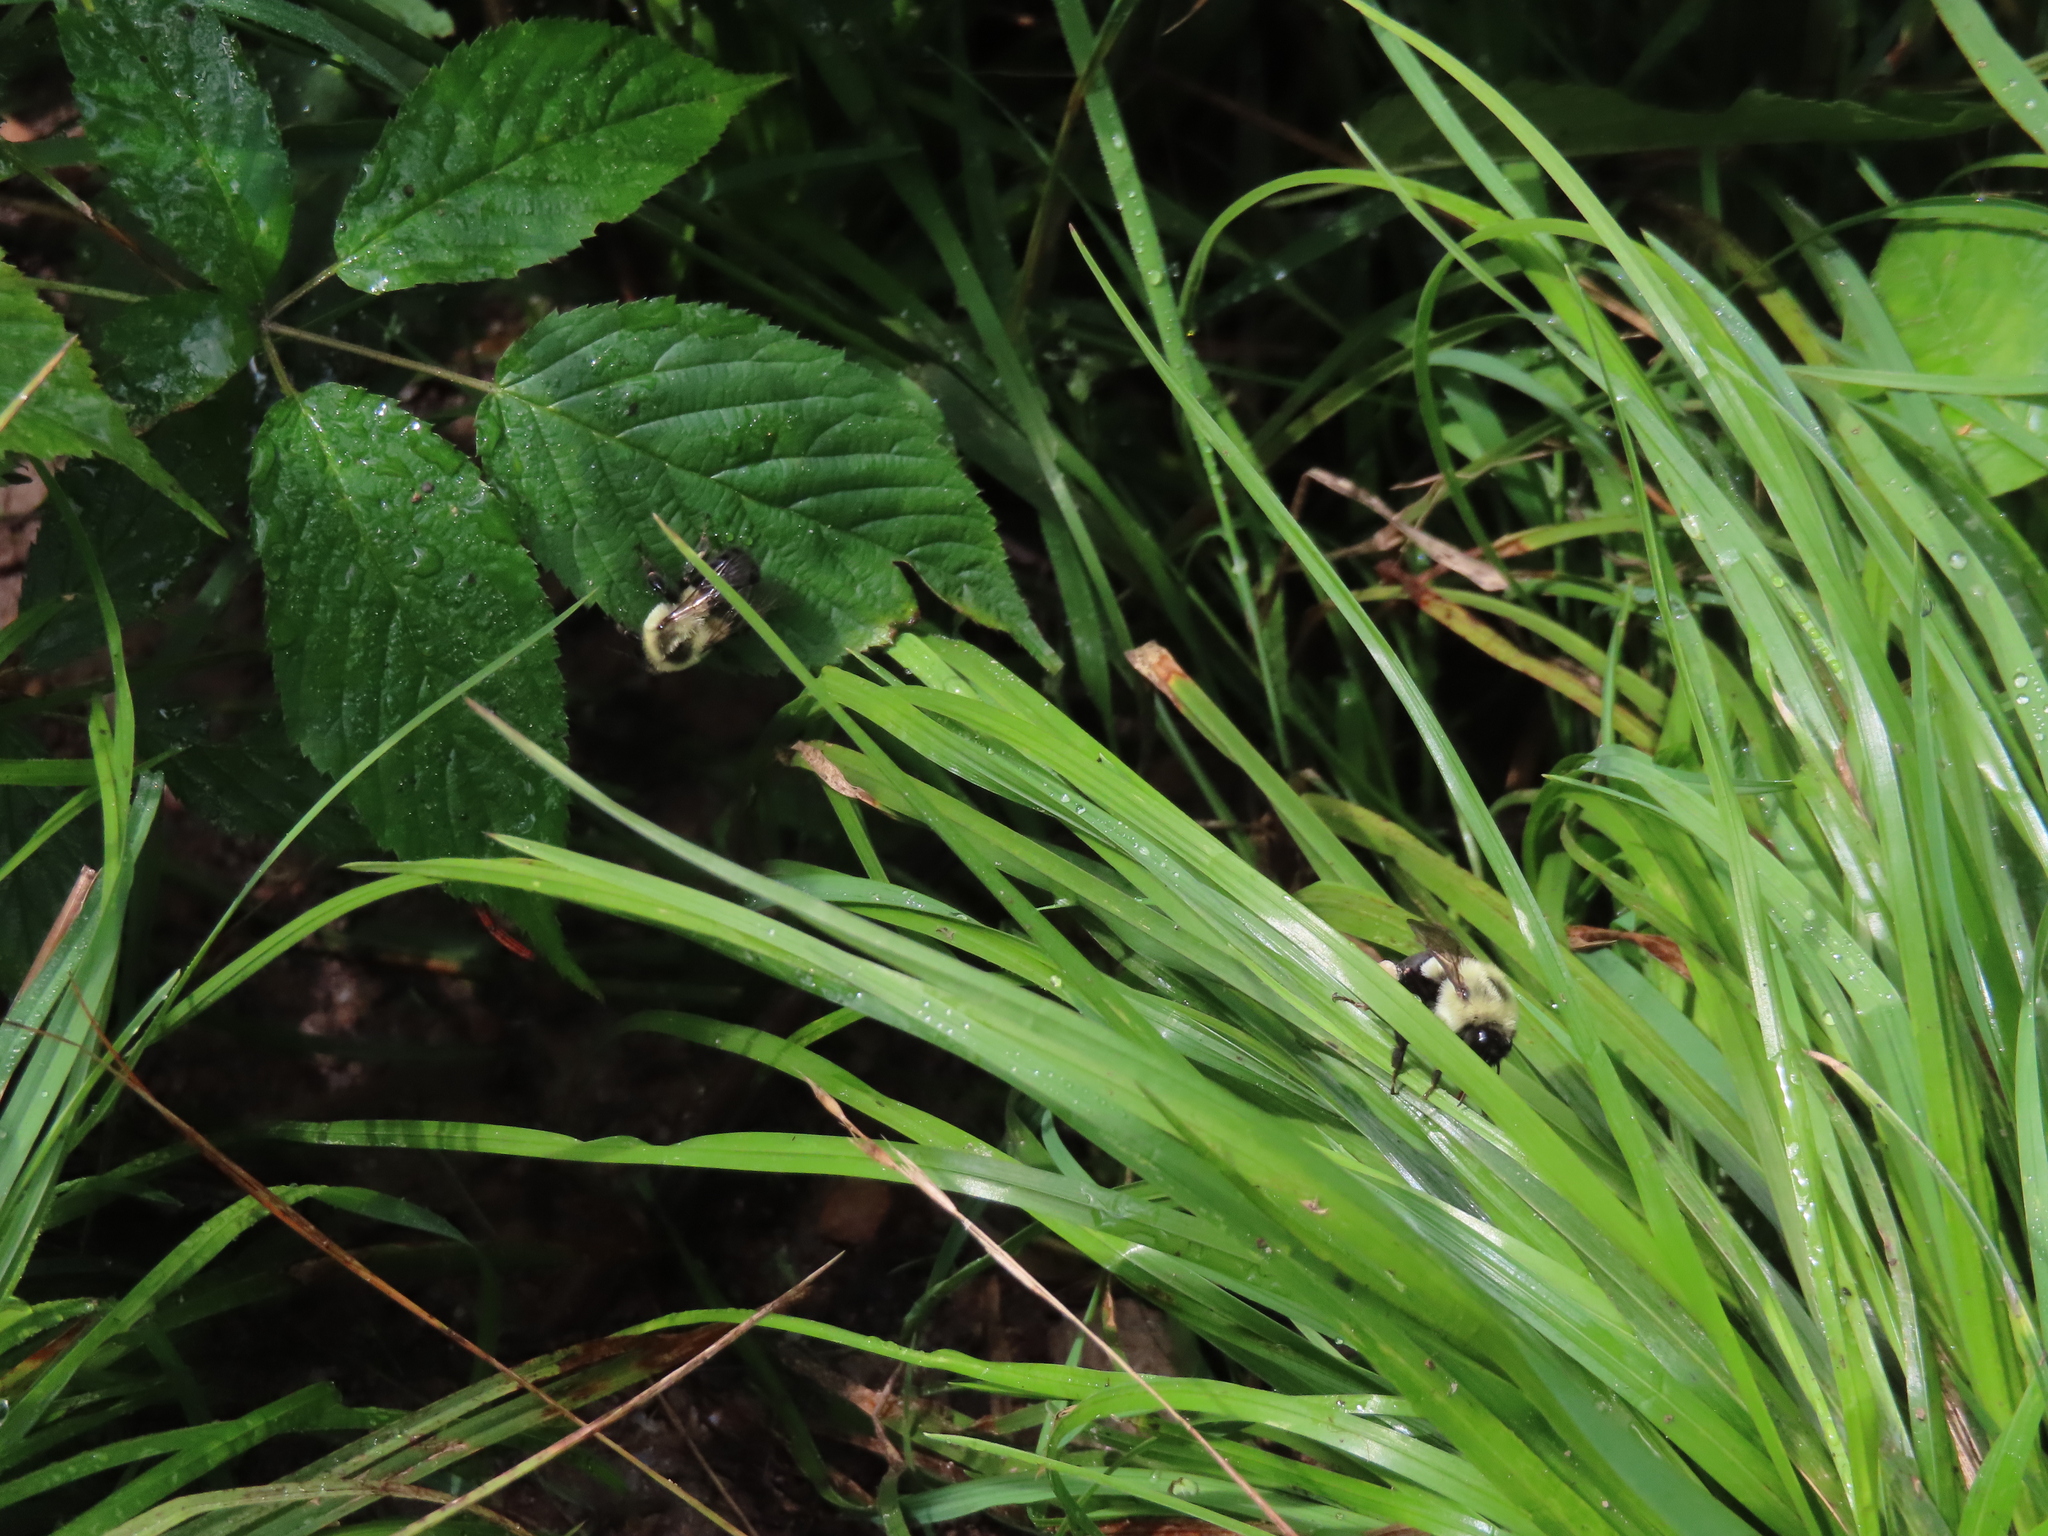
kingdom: Animalia
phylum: Arthropoda
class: Insecta
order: Hymenoptera
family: Apidae
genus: Bombus
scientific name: Bombus impatiens
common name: Common eastern bumble bee
